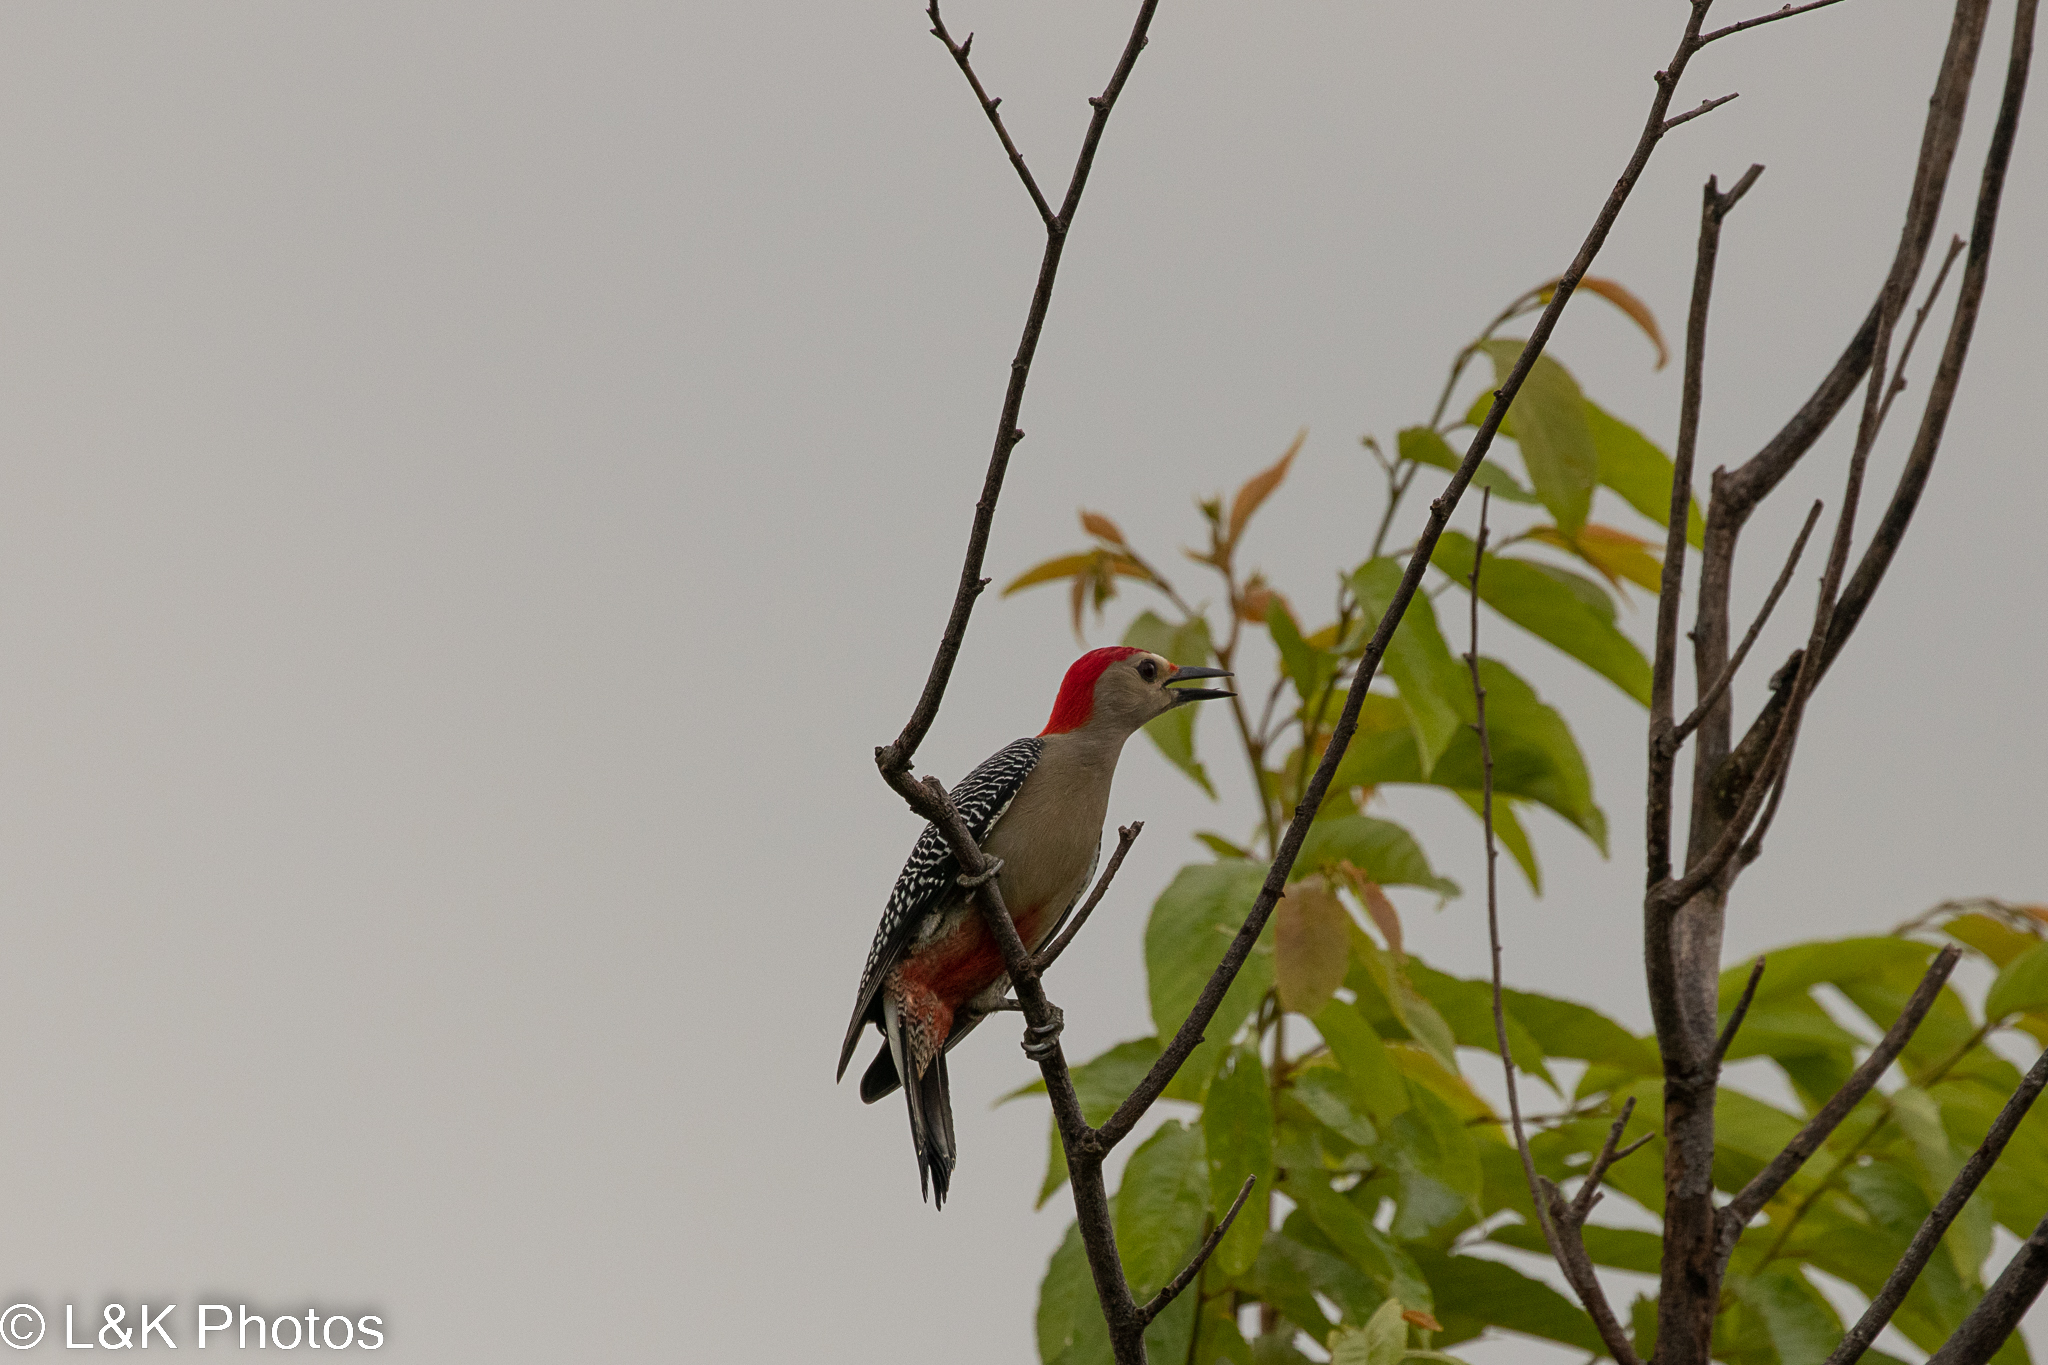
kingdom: Animalia
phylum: Chordata
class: Aves
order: Piciformes
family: Picidae
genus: Melanerpes
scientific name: Melanerpes aurifrons
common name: Golden-fronted woodpecker
